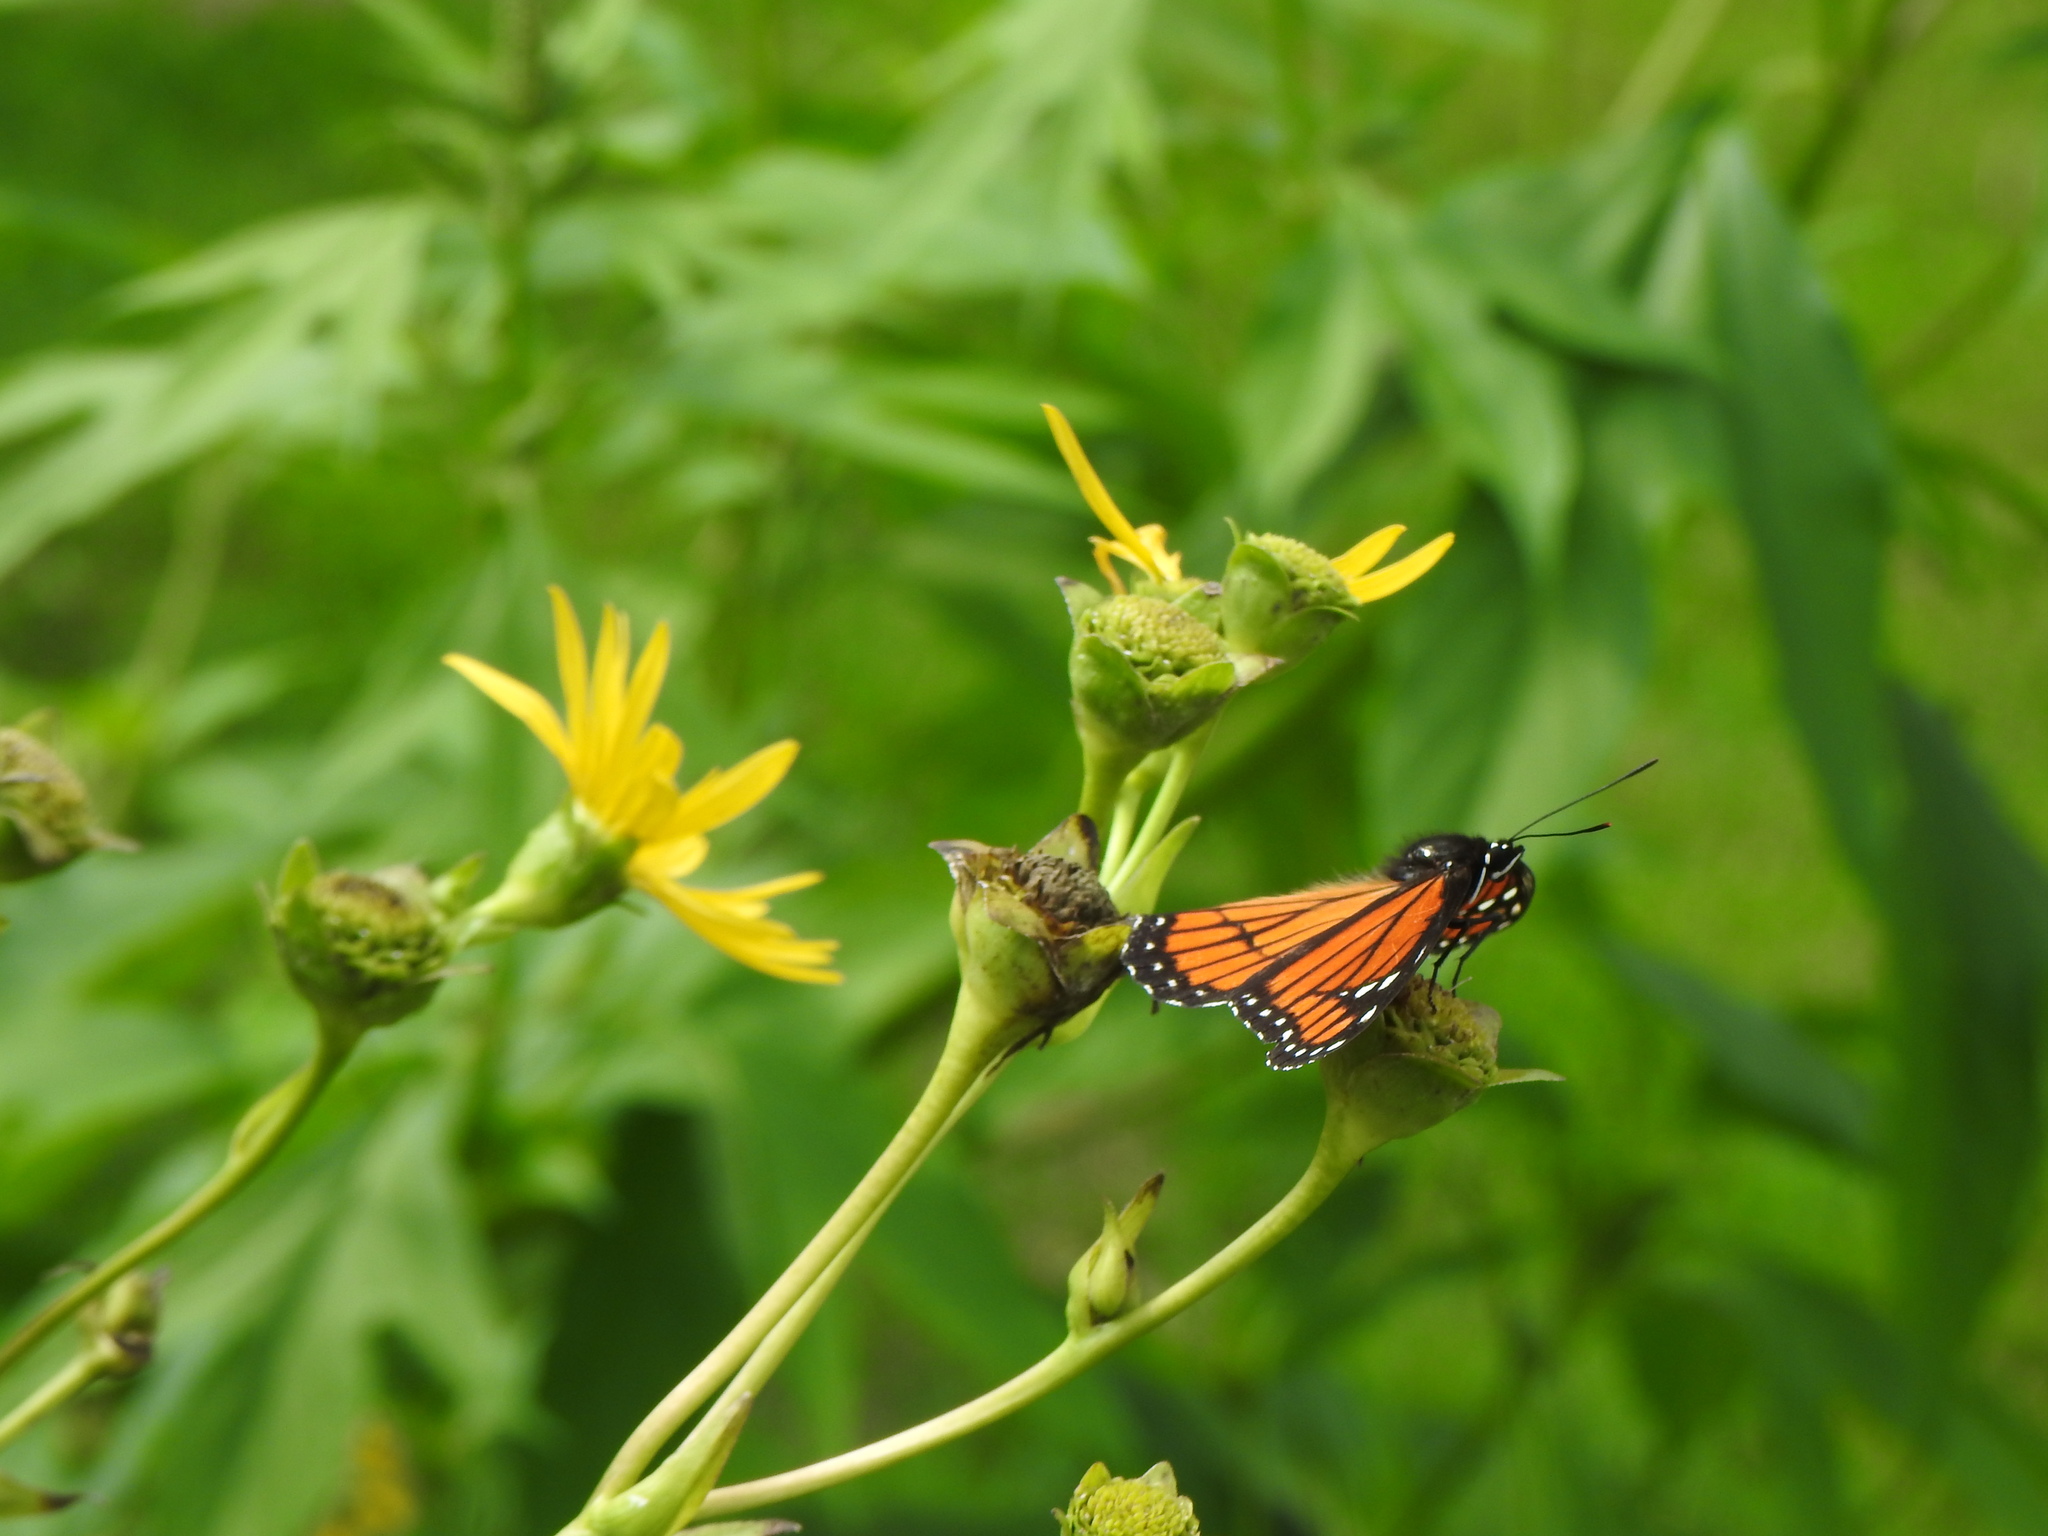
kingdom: Animalia
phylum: Arthropoda
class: Insecta
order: Lepidoptera
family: Nymphalidae
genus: Limenitis
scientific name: Limenitis archippus
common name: Viceroy
